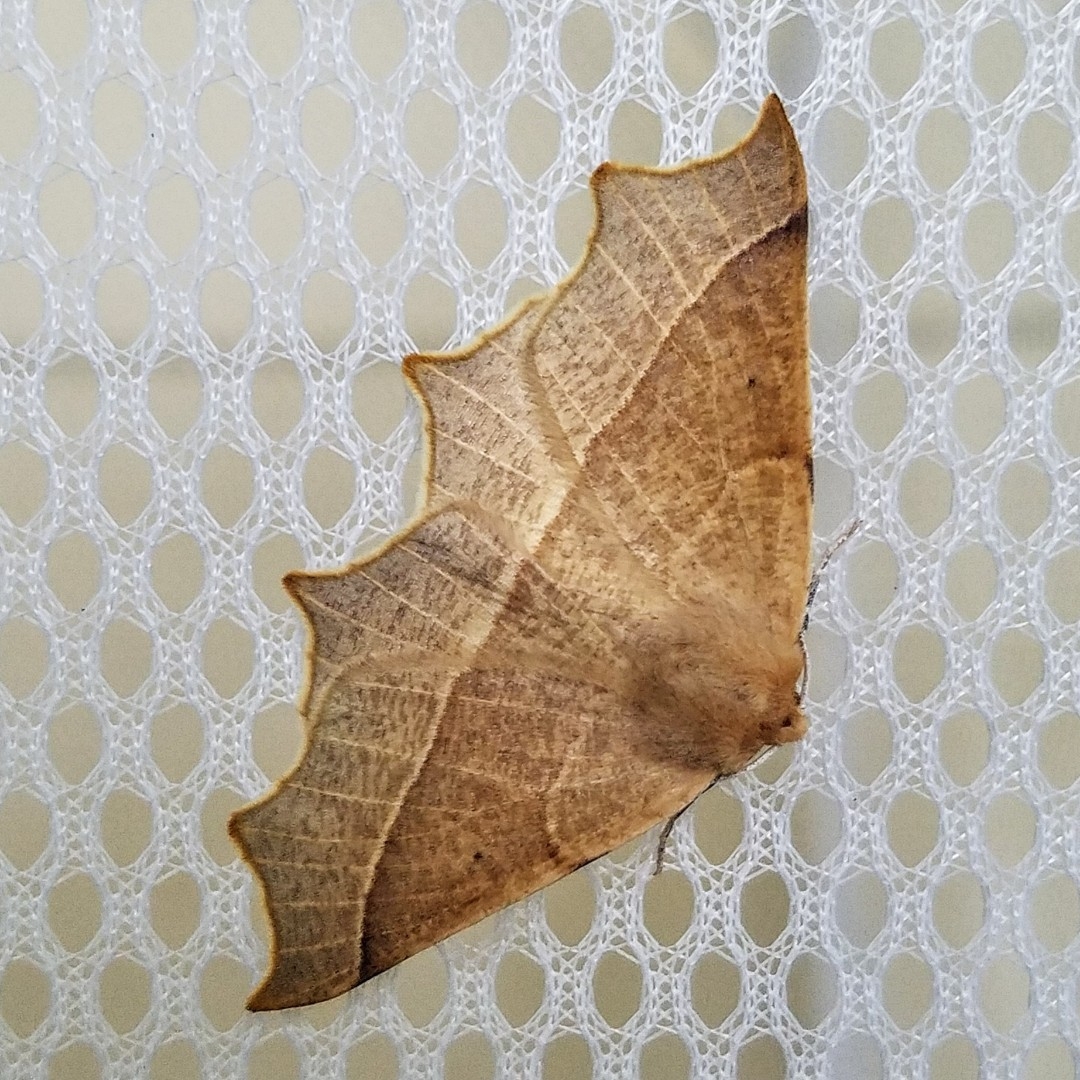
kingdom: Animalia
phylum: Arthropoda
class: Insecta
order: Lepidoptera
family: Geometridae
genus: Tetracis
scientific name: Tetracis cervinaria
